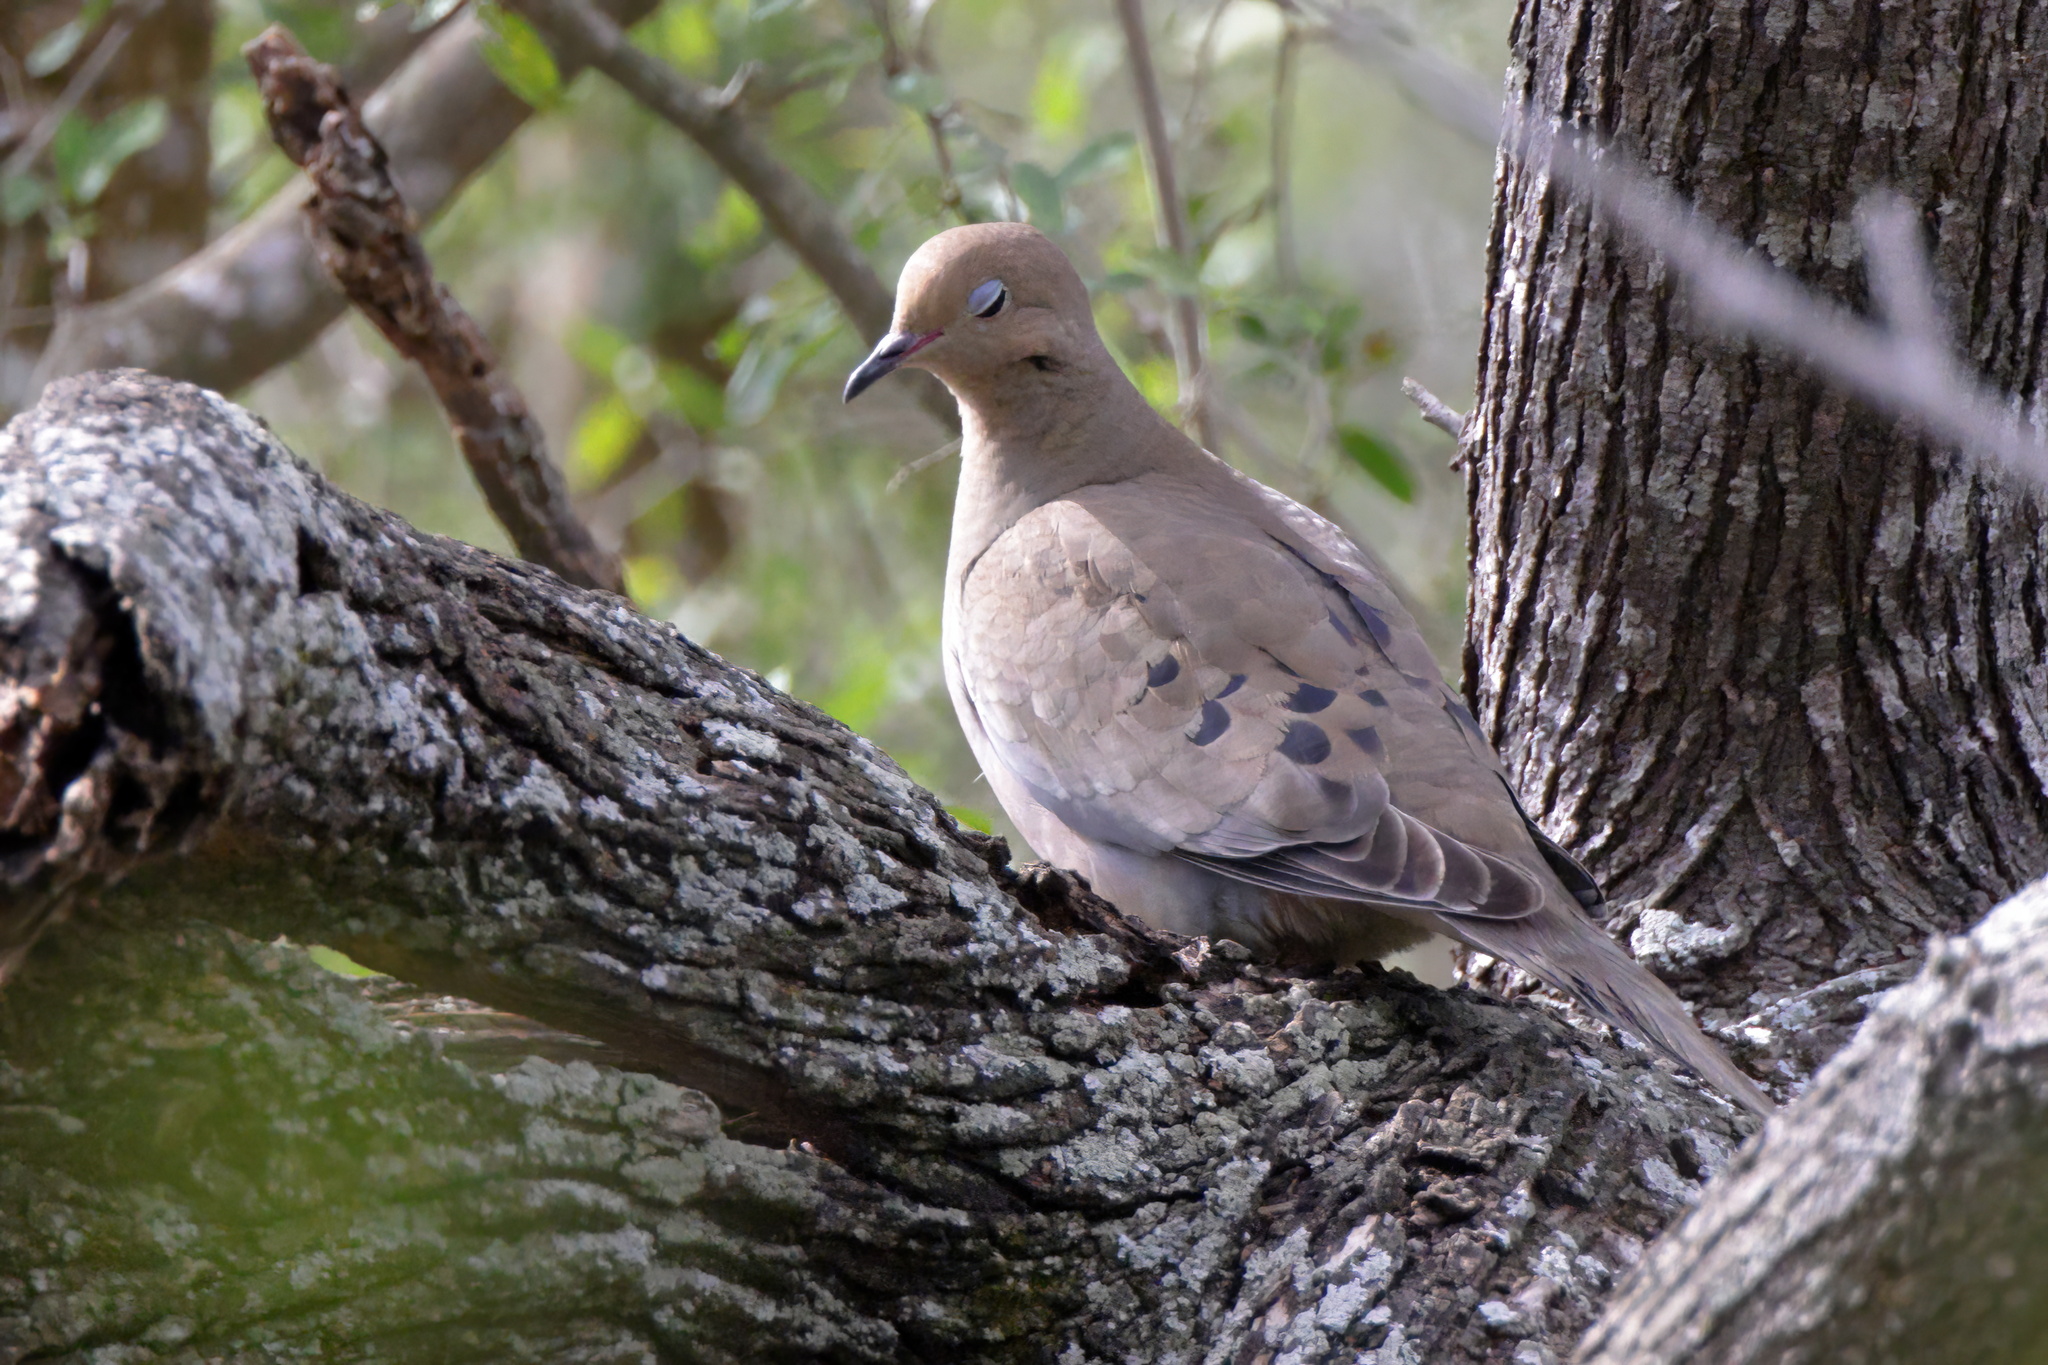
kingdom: Animalia
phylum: Chordata
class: Aves
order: Columbiformes
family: Columbidae
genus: Zenaida
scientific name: Zenaida macroura
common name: Mourning dove
